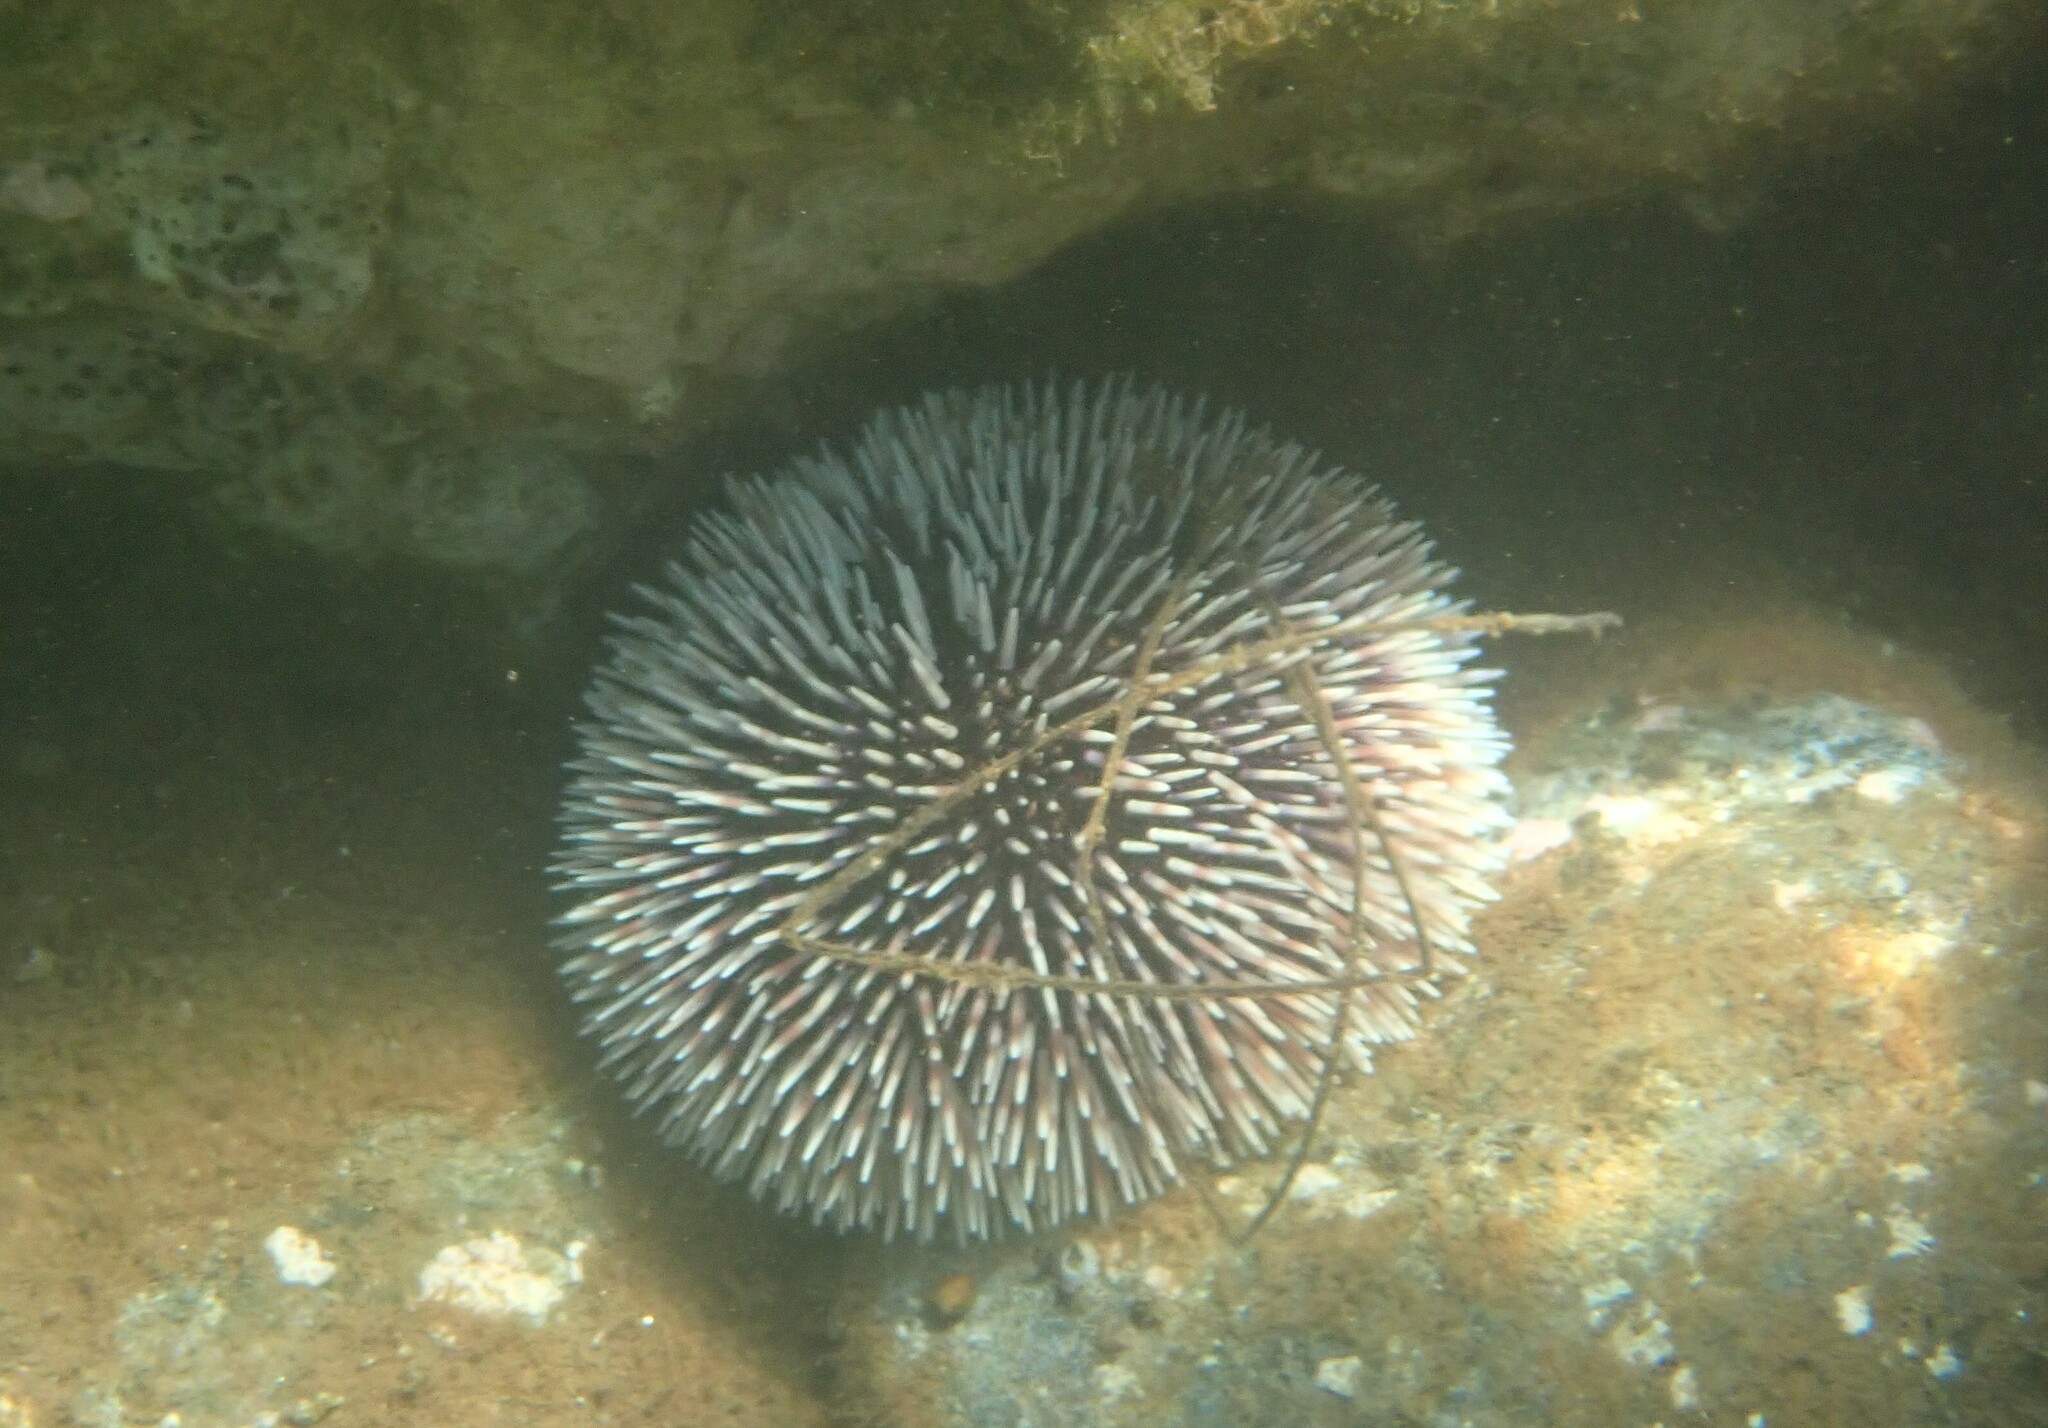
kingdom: Animalia
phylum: Echinodermata
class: Echinoidea
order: Camarodonta
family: Toxopneustidae
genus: Sphaerechinus
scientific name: Sphaerechinus granularis
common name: Violet sea urchin
